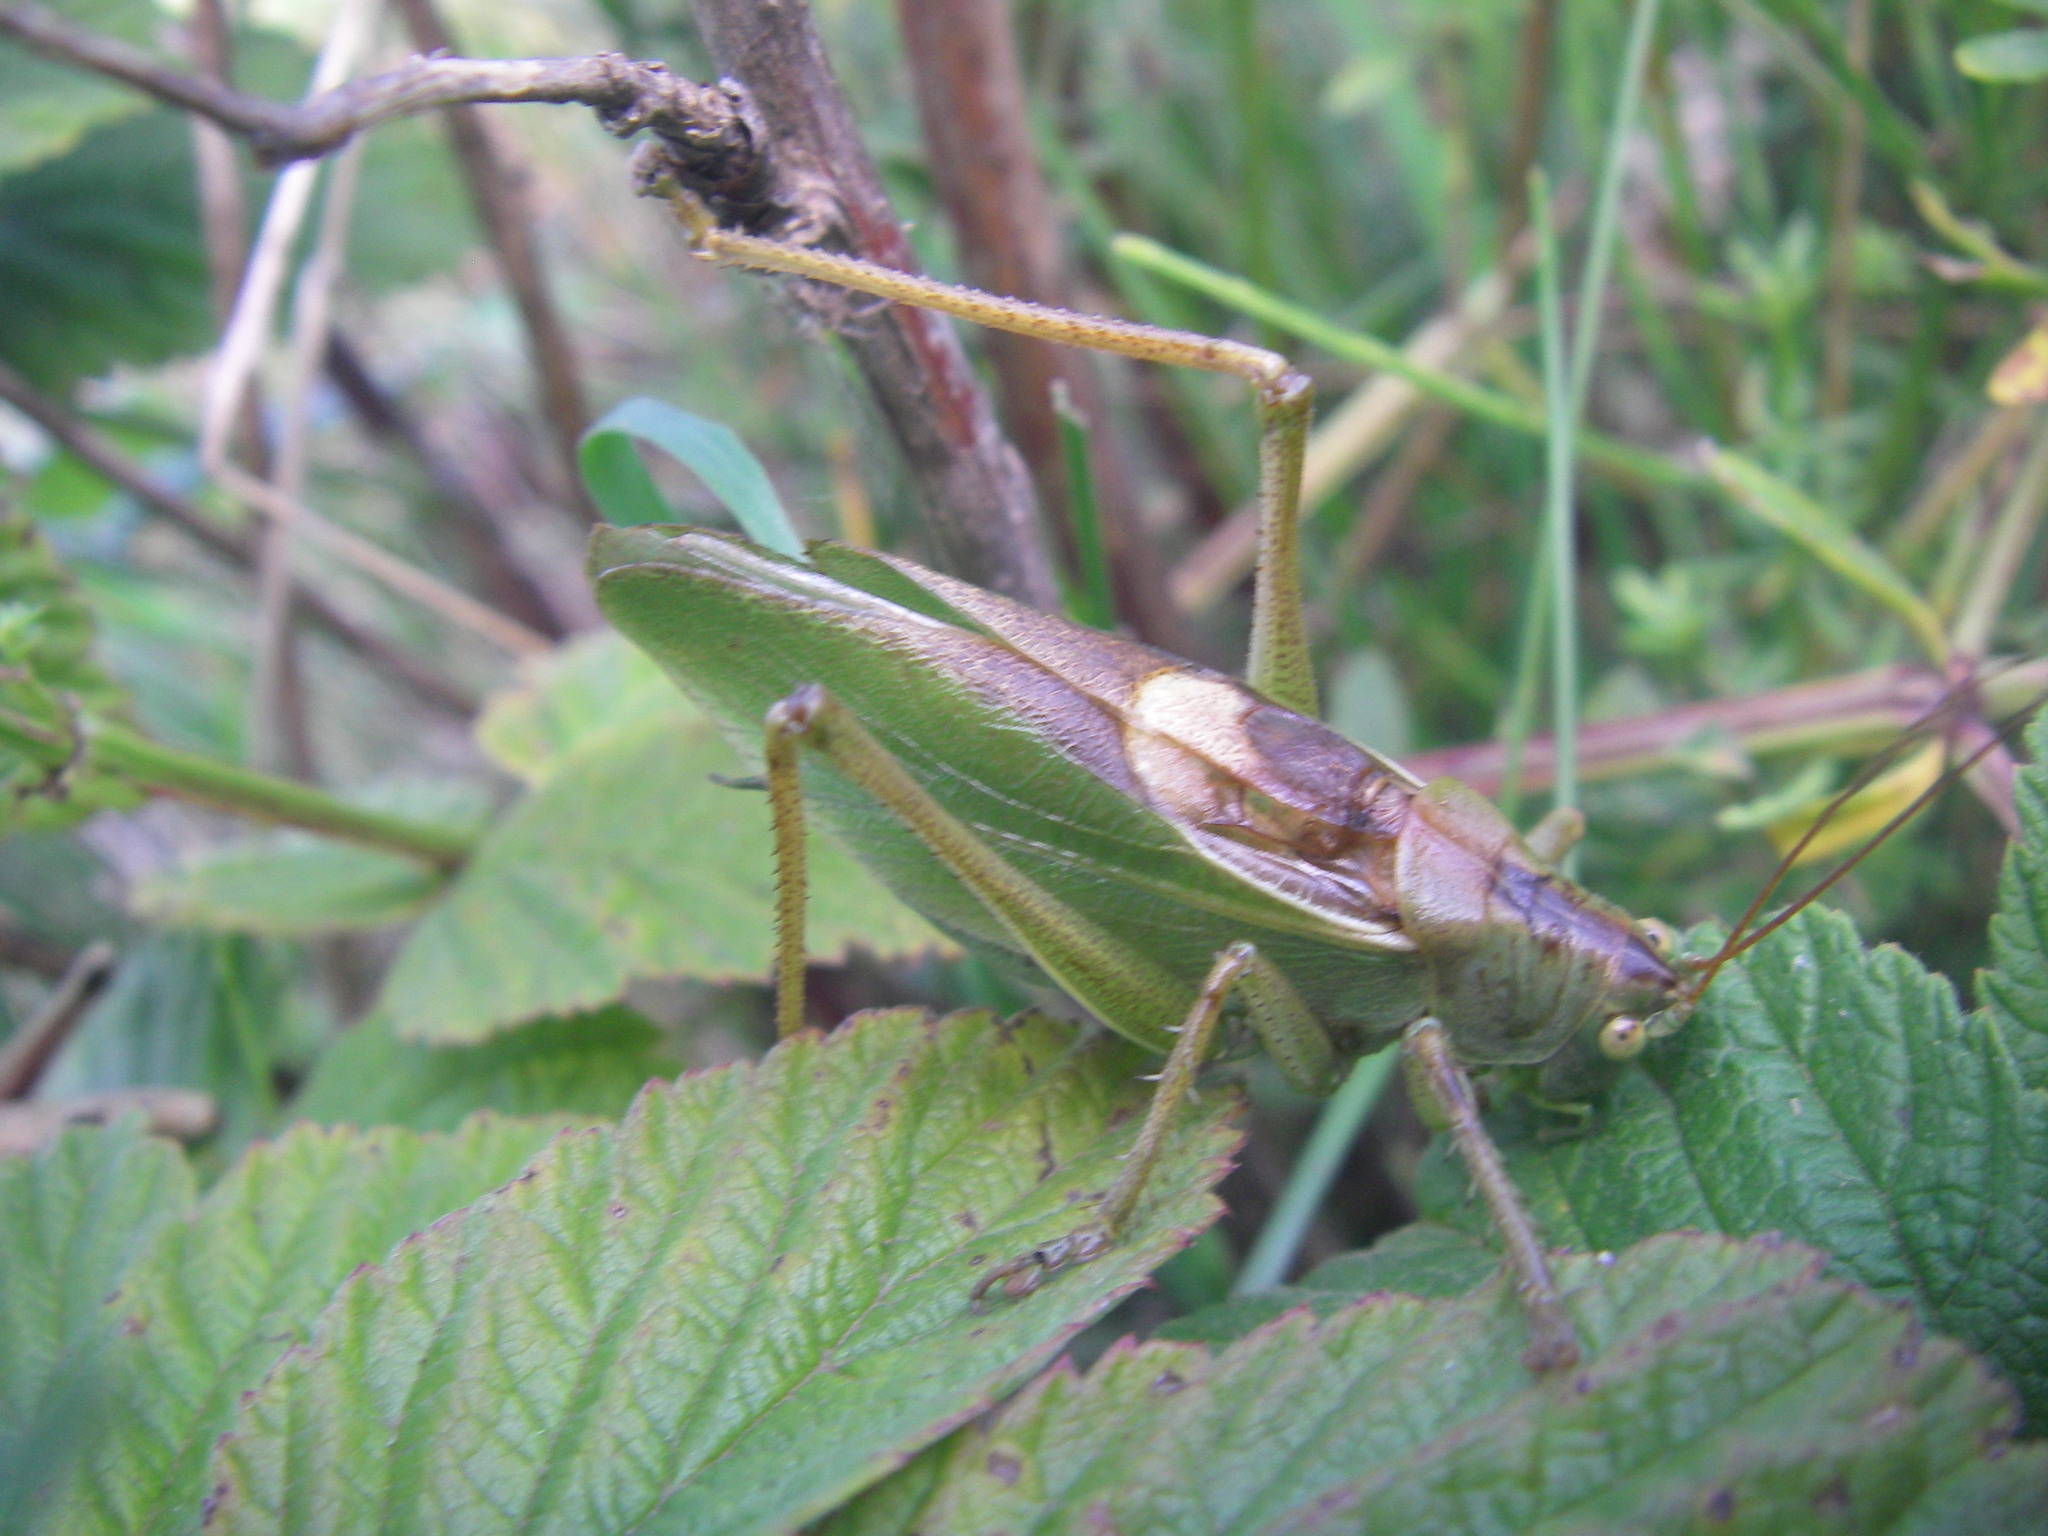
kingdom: Animalia
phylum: Arthropoda
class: Insecta
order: Orthoptera
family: Tettigoniidae
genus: Tettigonia
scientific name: Tettigonia cantans
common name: Upland green bush-cricket
